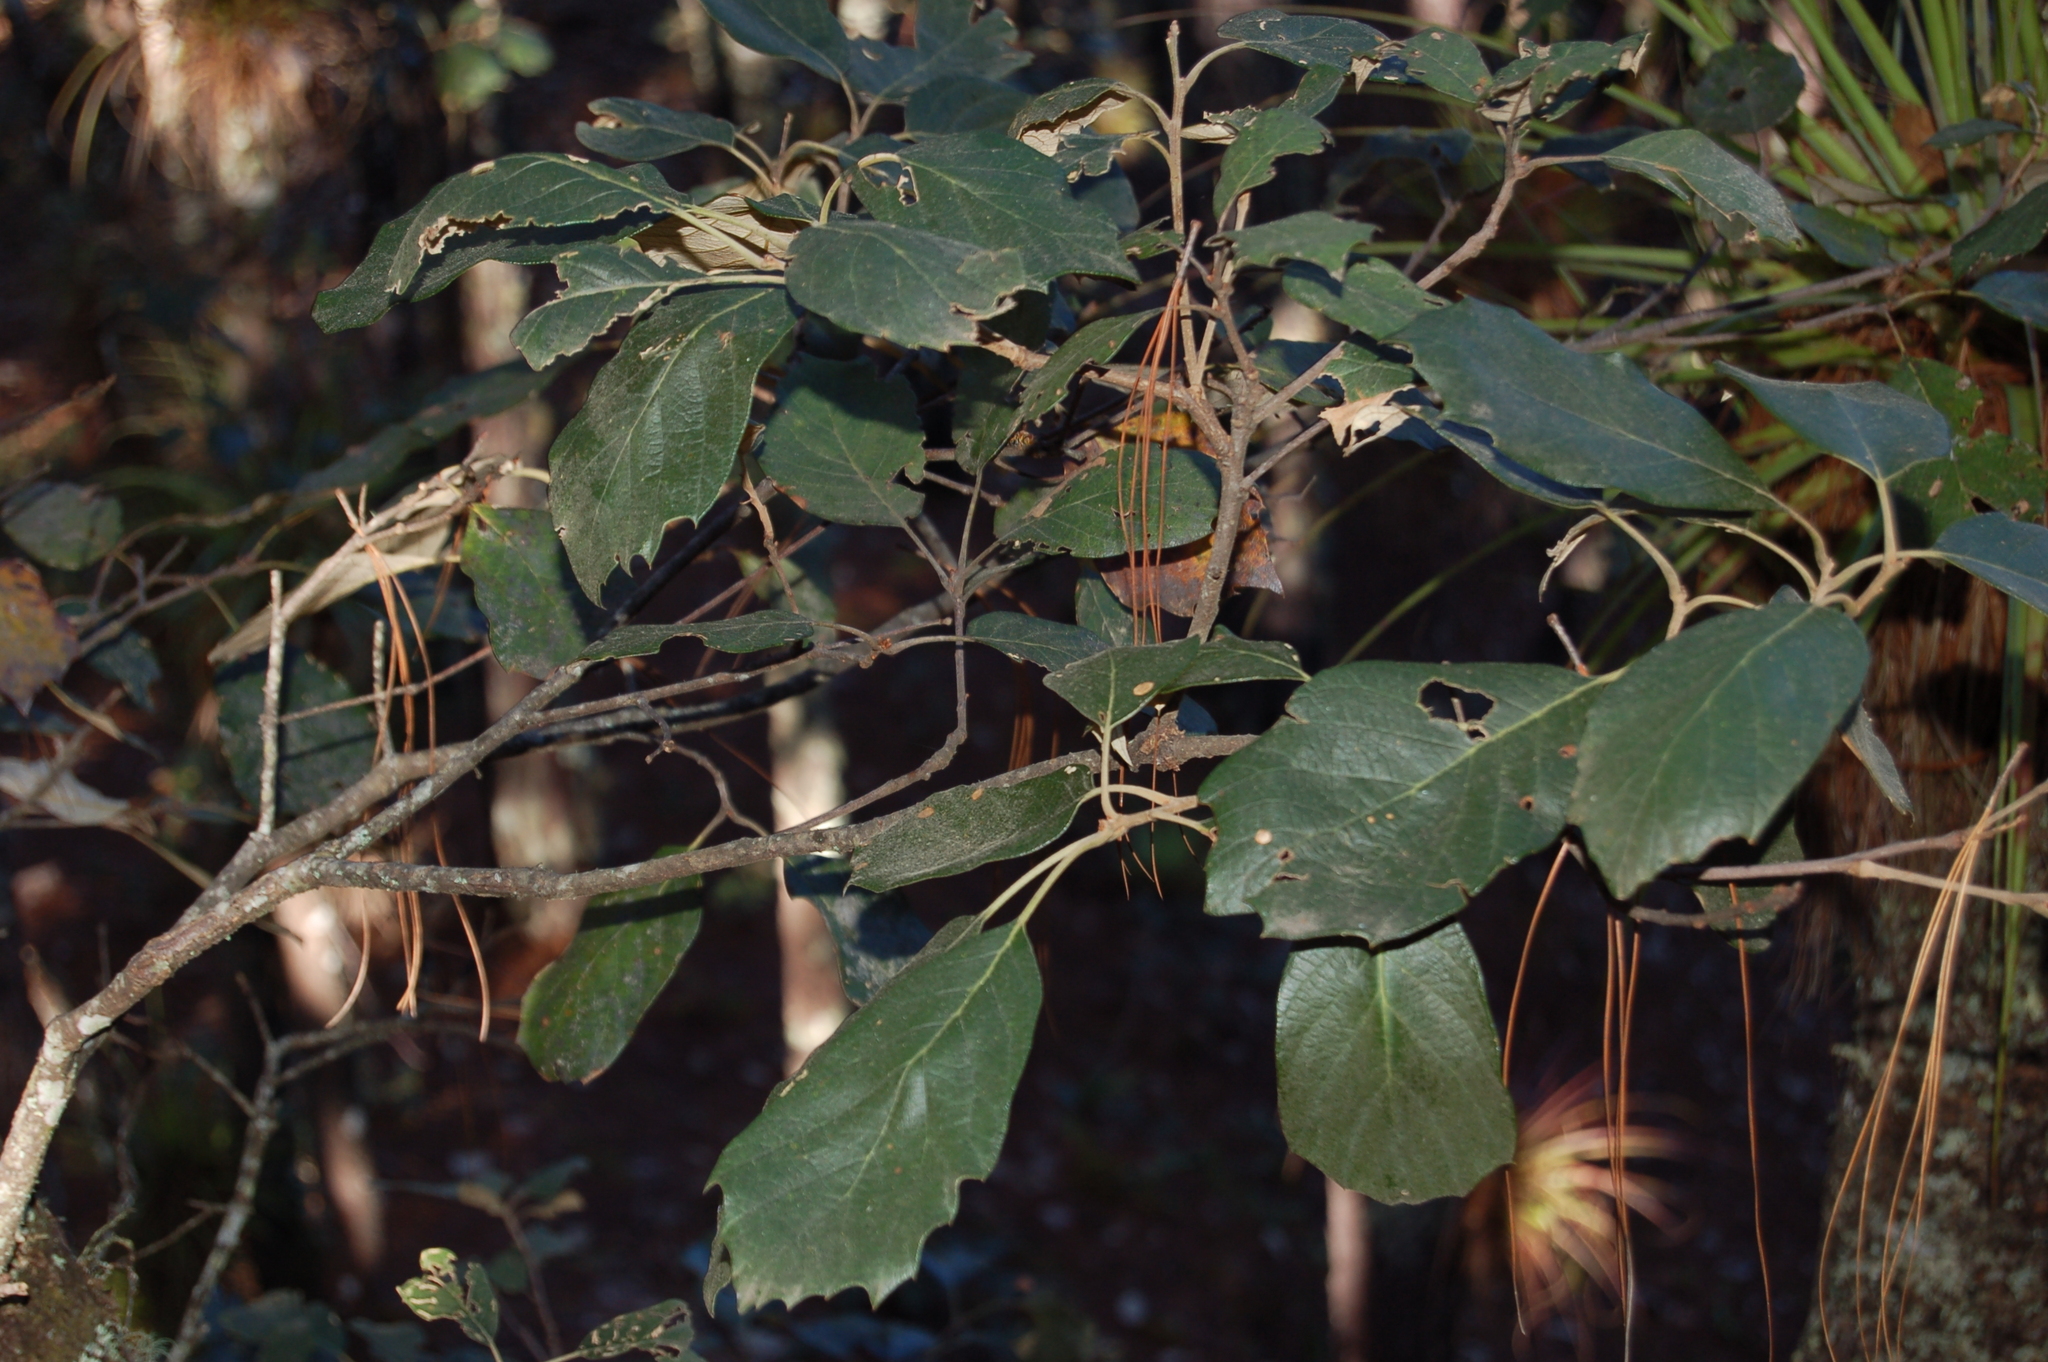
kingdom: Plantae
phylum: Tracheophyta
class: Magnoliopsida
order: Fagales
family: Fagaceae
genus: Quercus
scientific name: Quercus scytophylla
